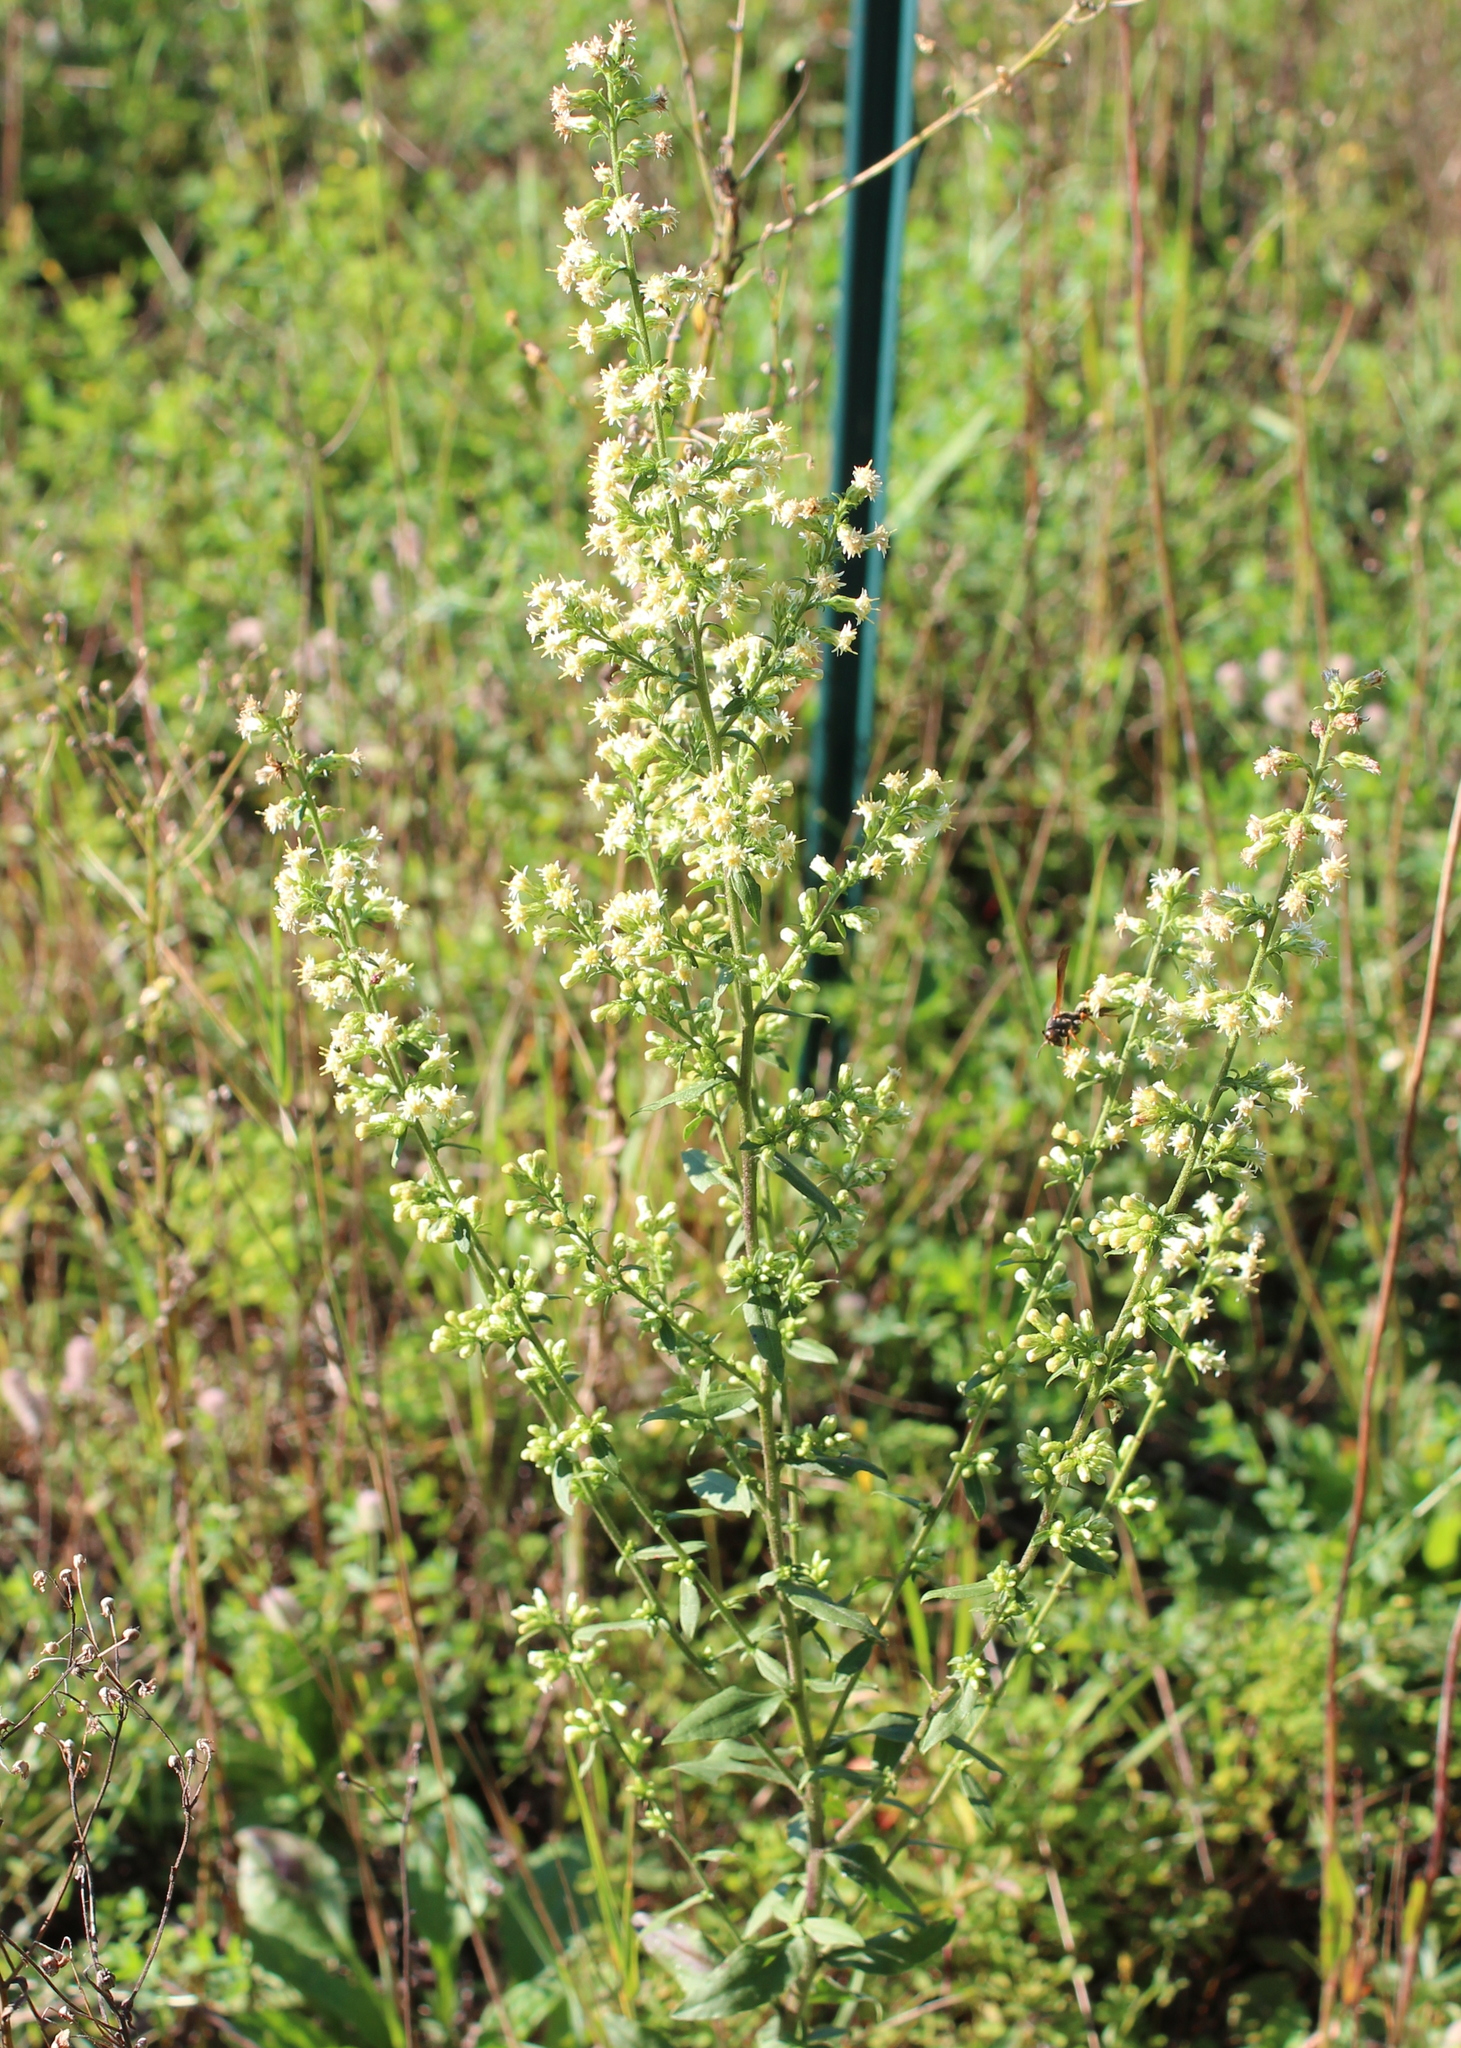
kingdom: Plantae
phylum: Tracheophyta
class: Magnoliopsida
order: Asterales
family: Asteraceae
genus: Solidago
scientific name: Solidago bicolor
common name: Silverrod
